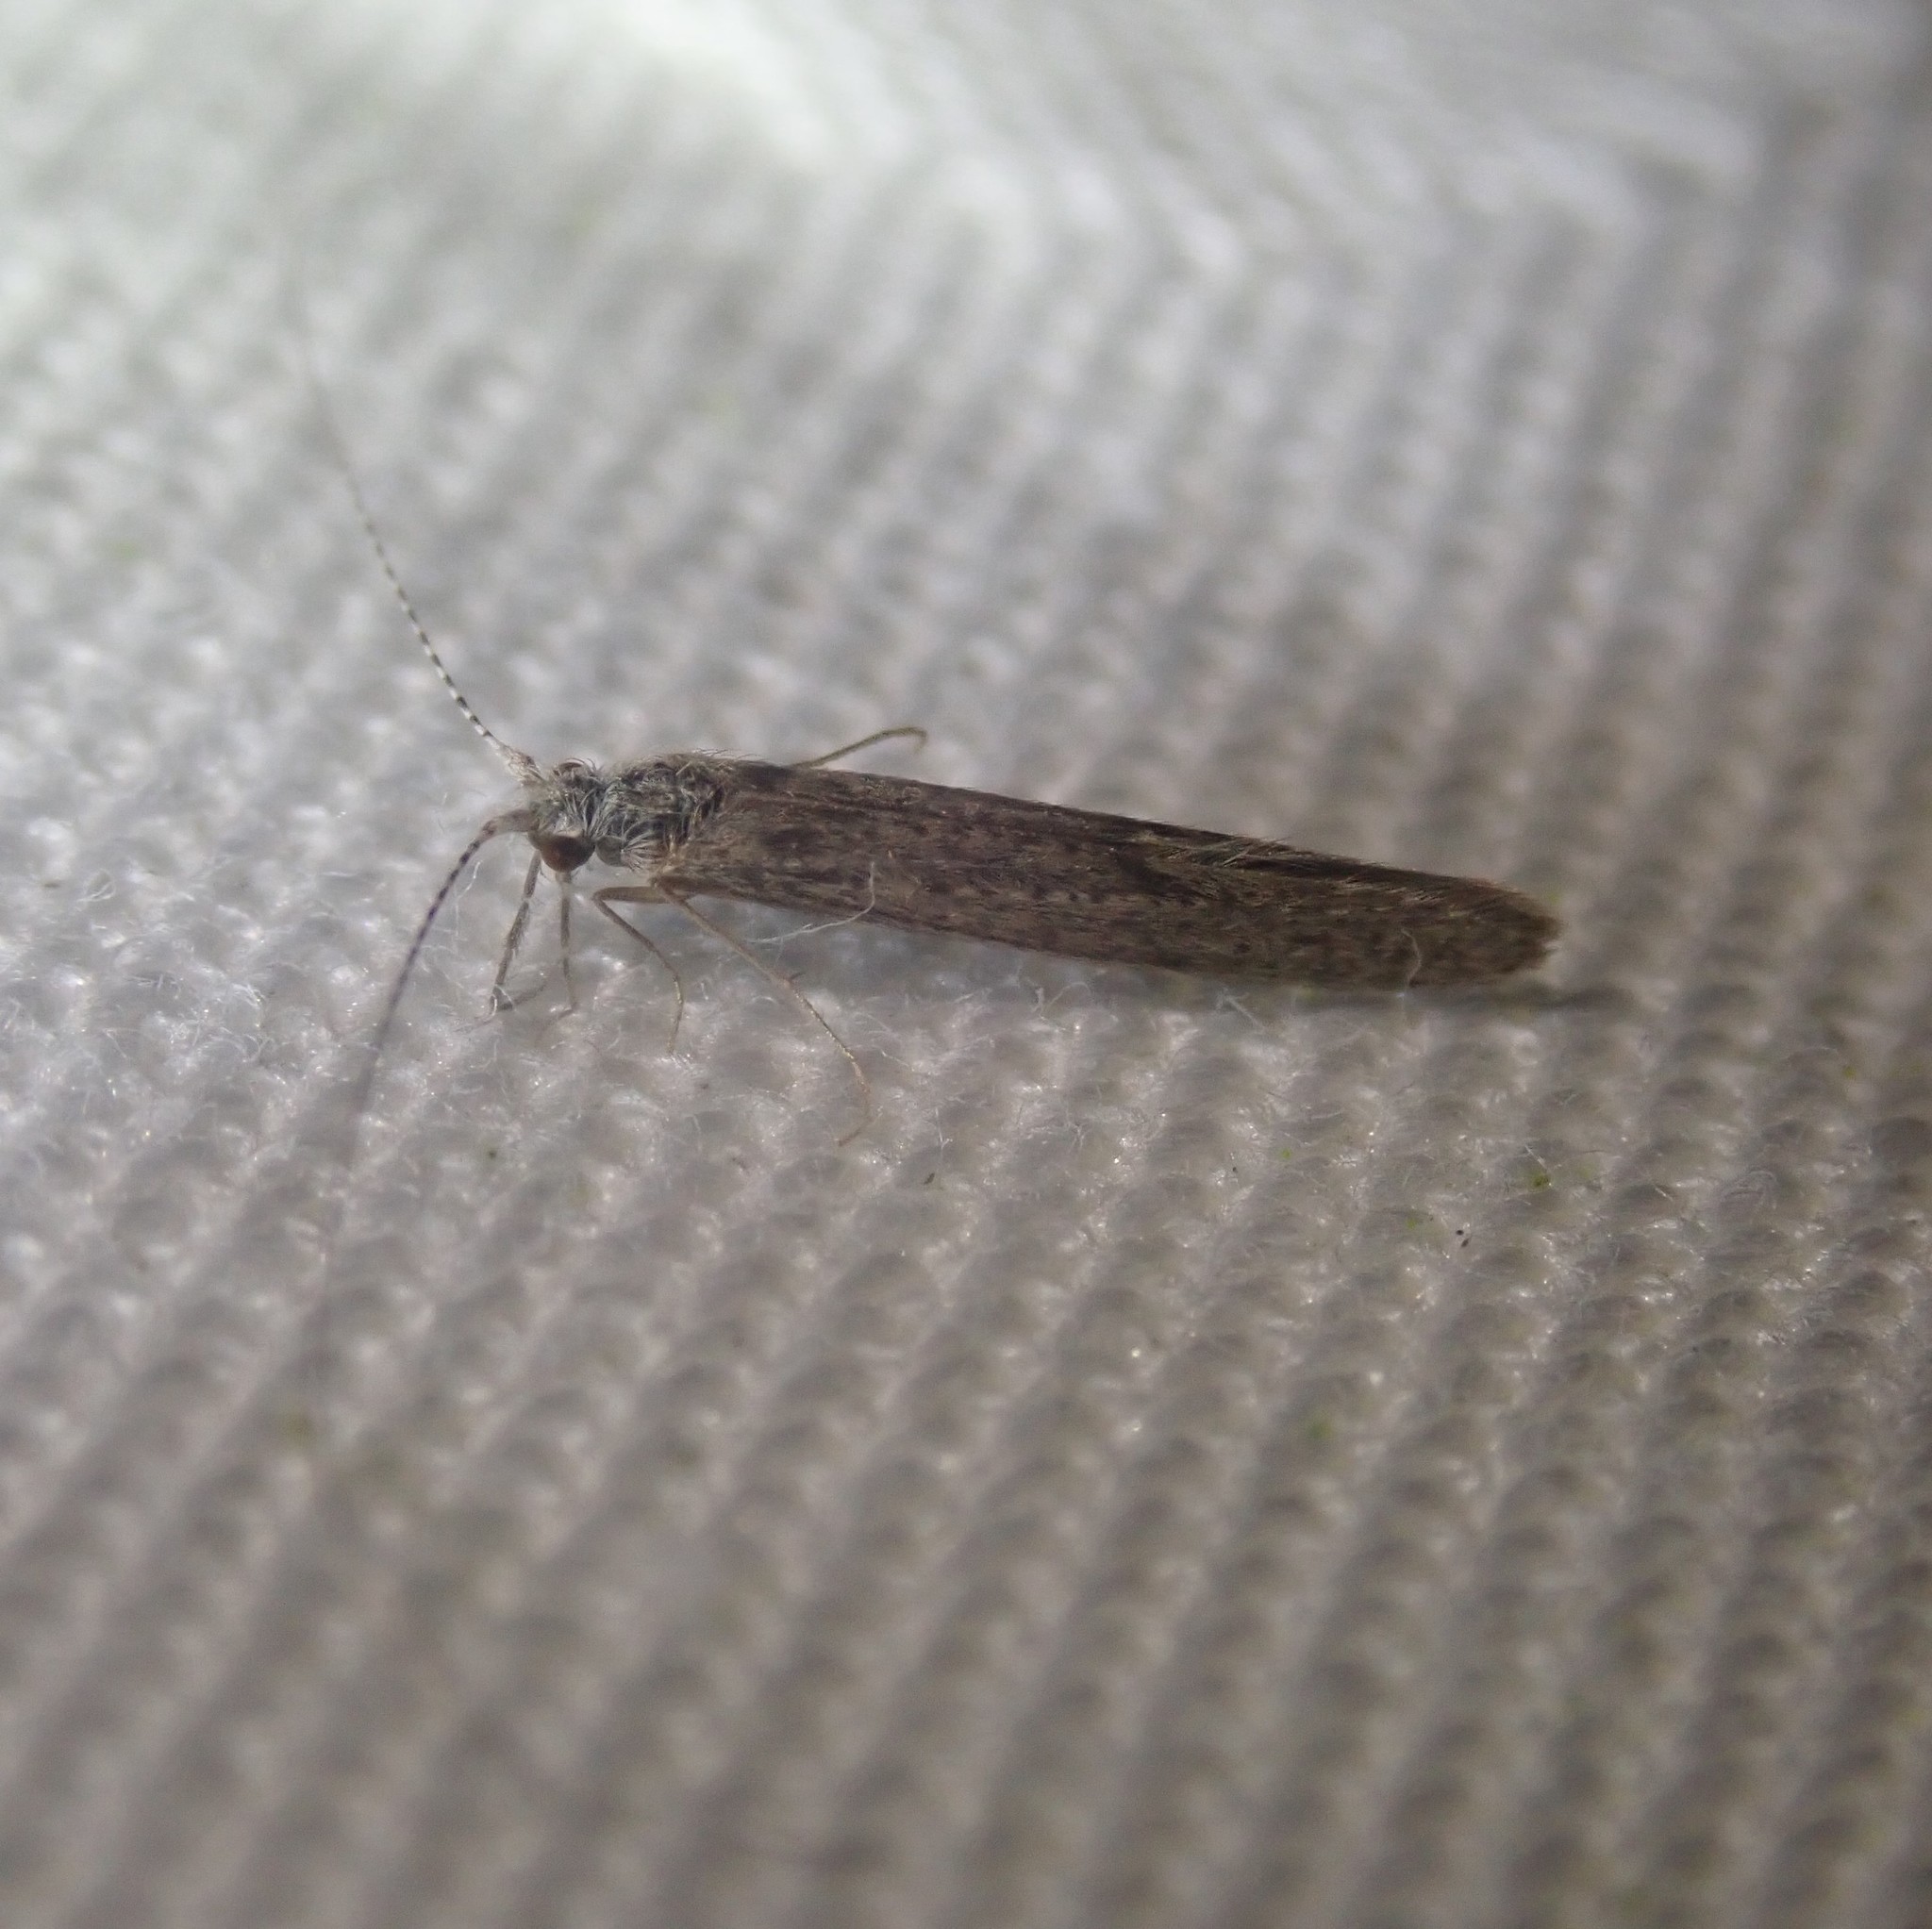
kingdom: Animalia
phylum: Arthropoda
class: Insecta
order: Trichoptera
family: Leptoceridae
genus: Leptocerus
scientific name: Leptocerus tineiformis
